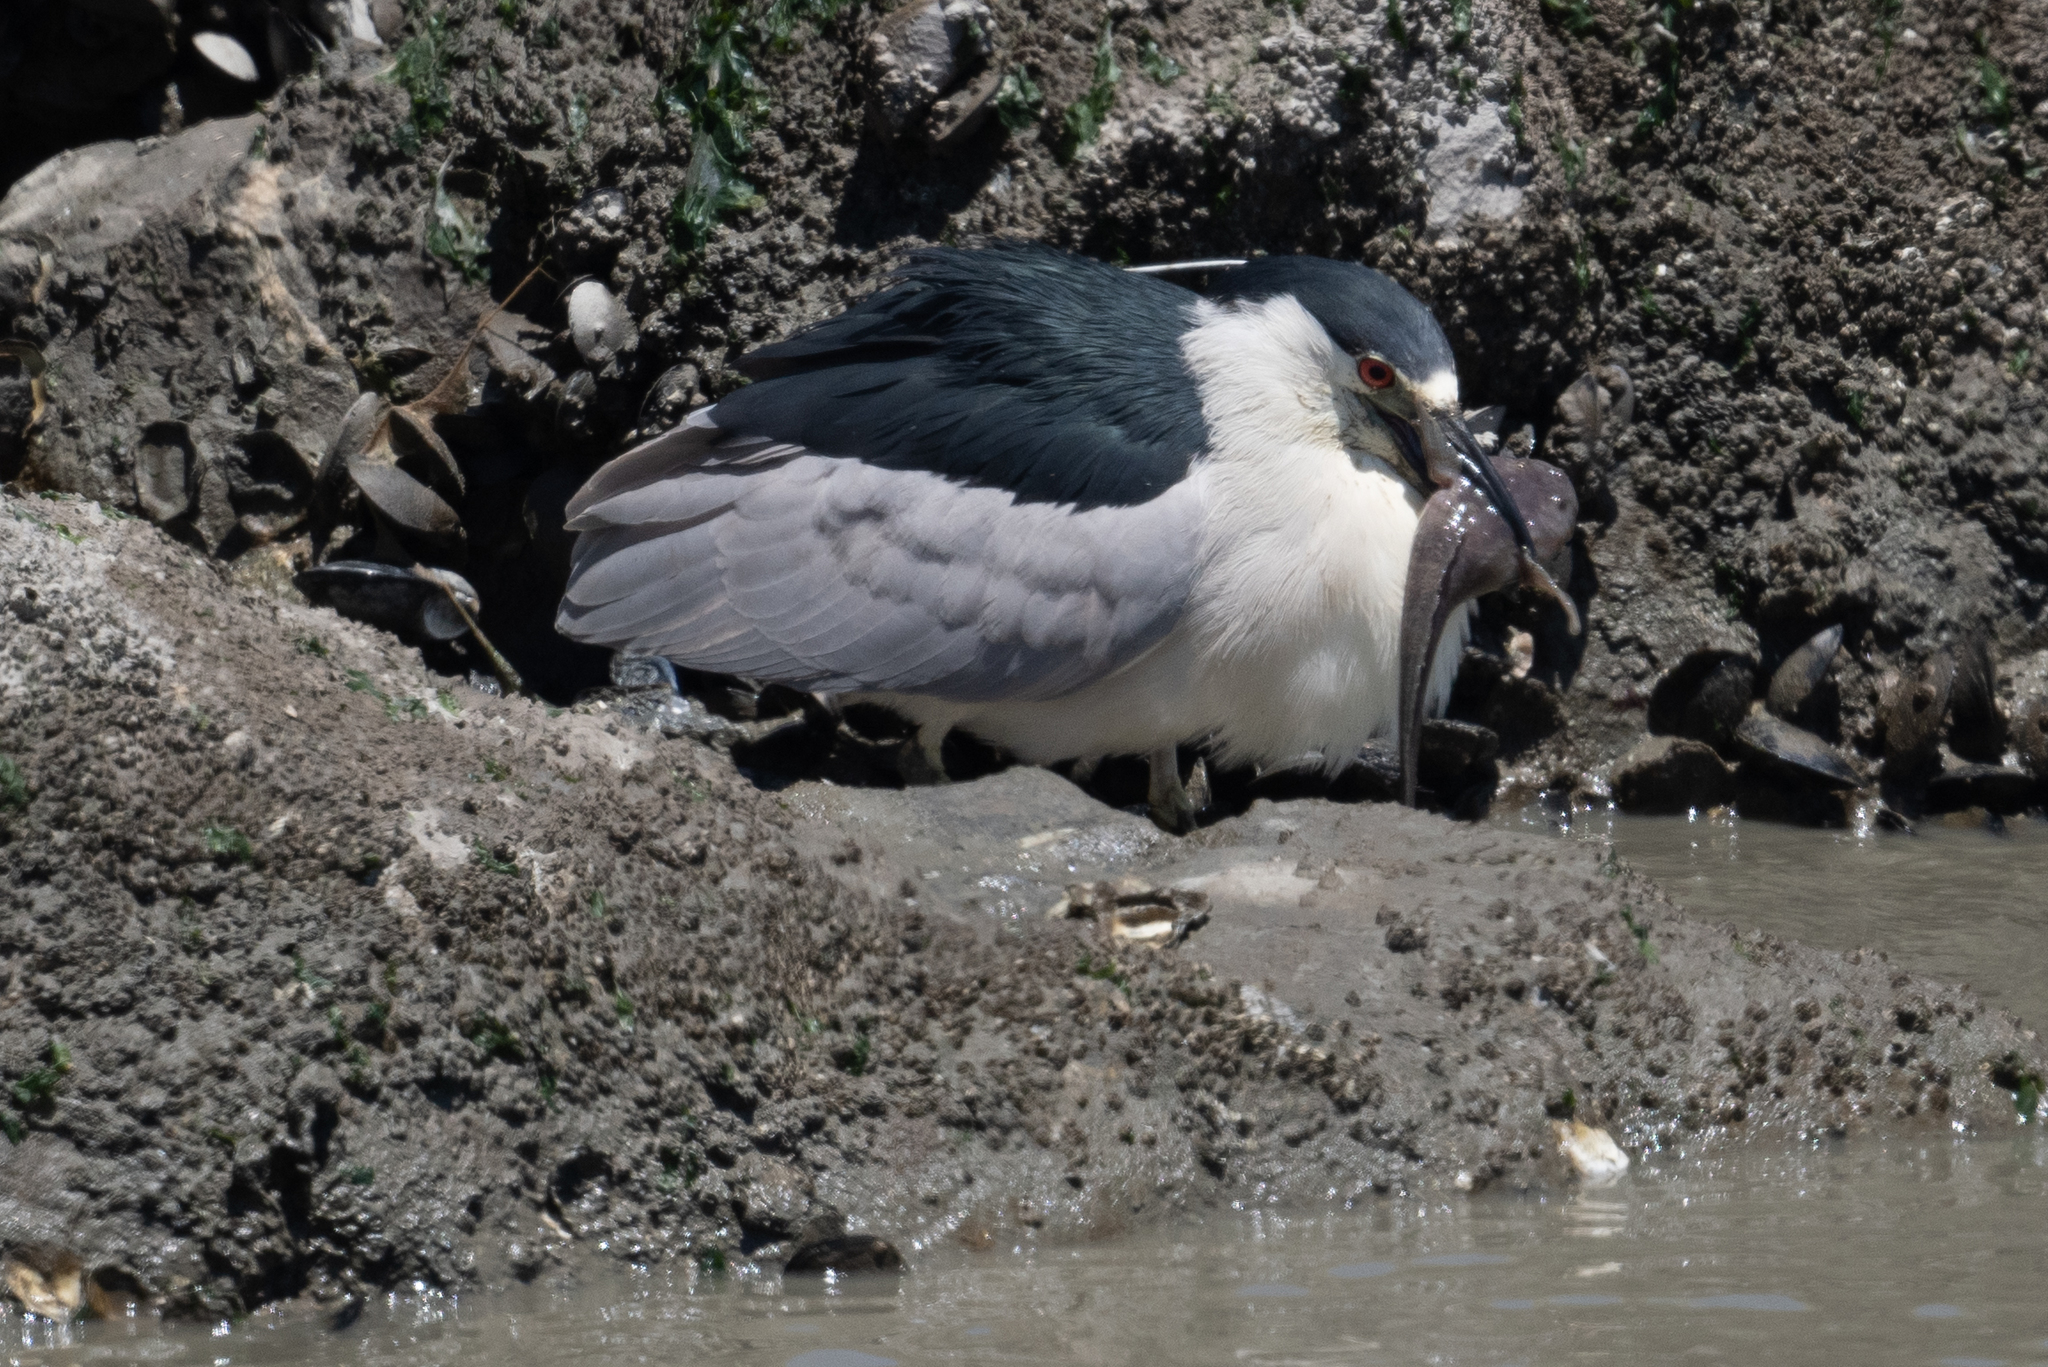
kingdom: Animalia
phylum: Chordata
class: Aves
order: Pelecaniformes
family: Ardeidae
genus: Nycticorax
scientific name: Nycticorax nycticorax
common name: Black-crowned night heron
